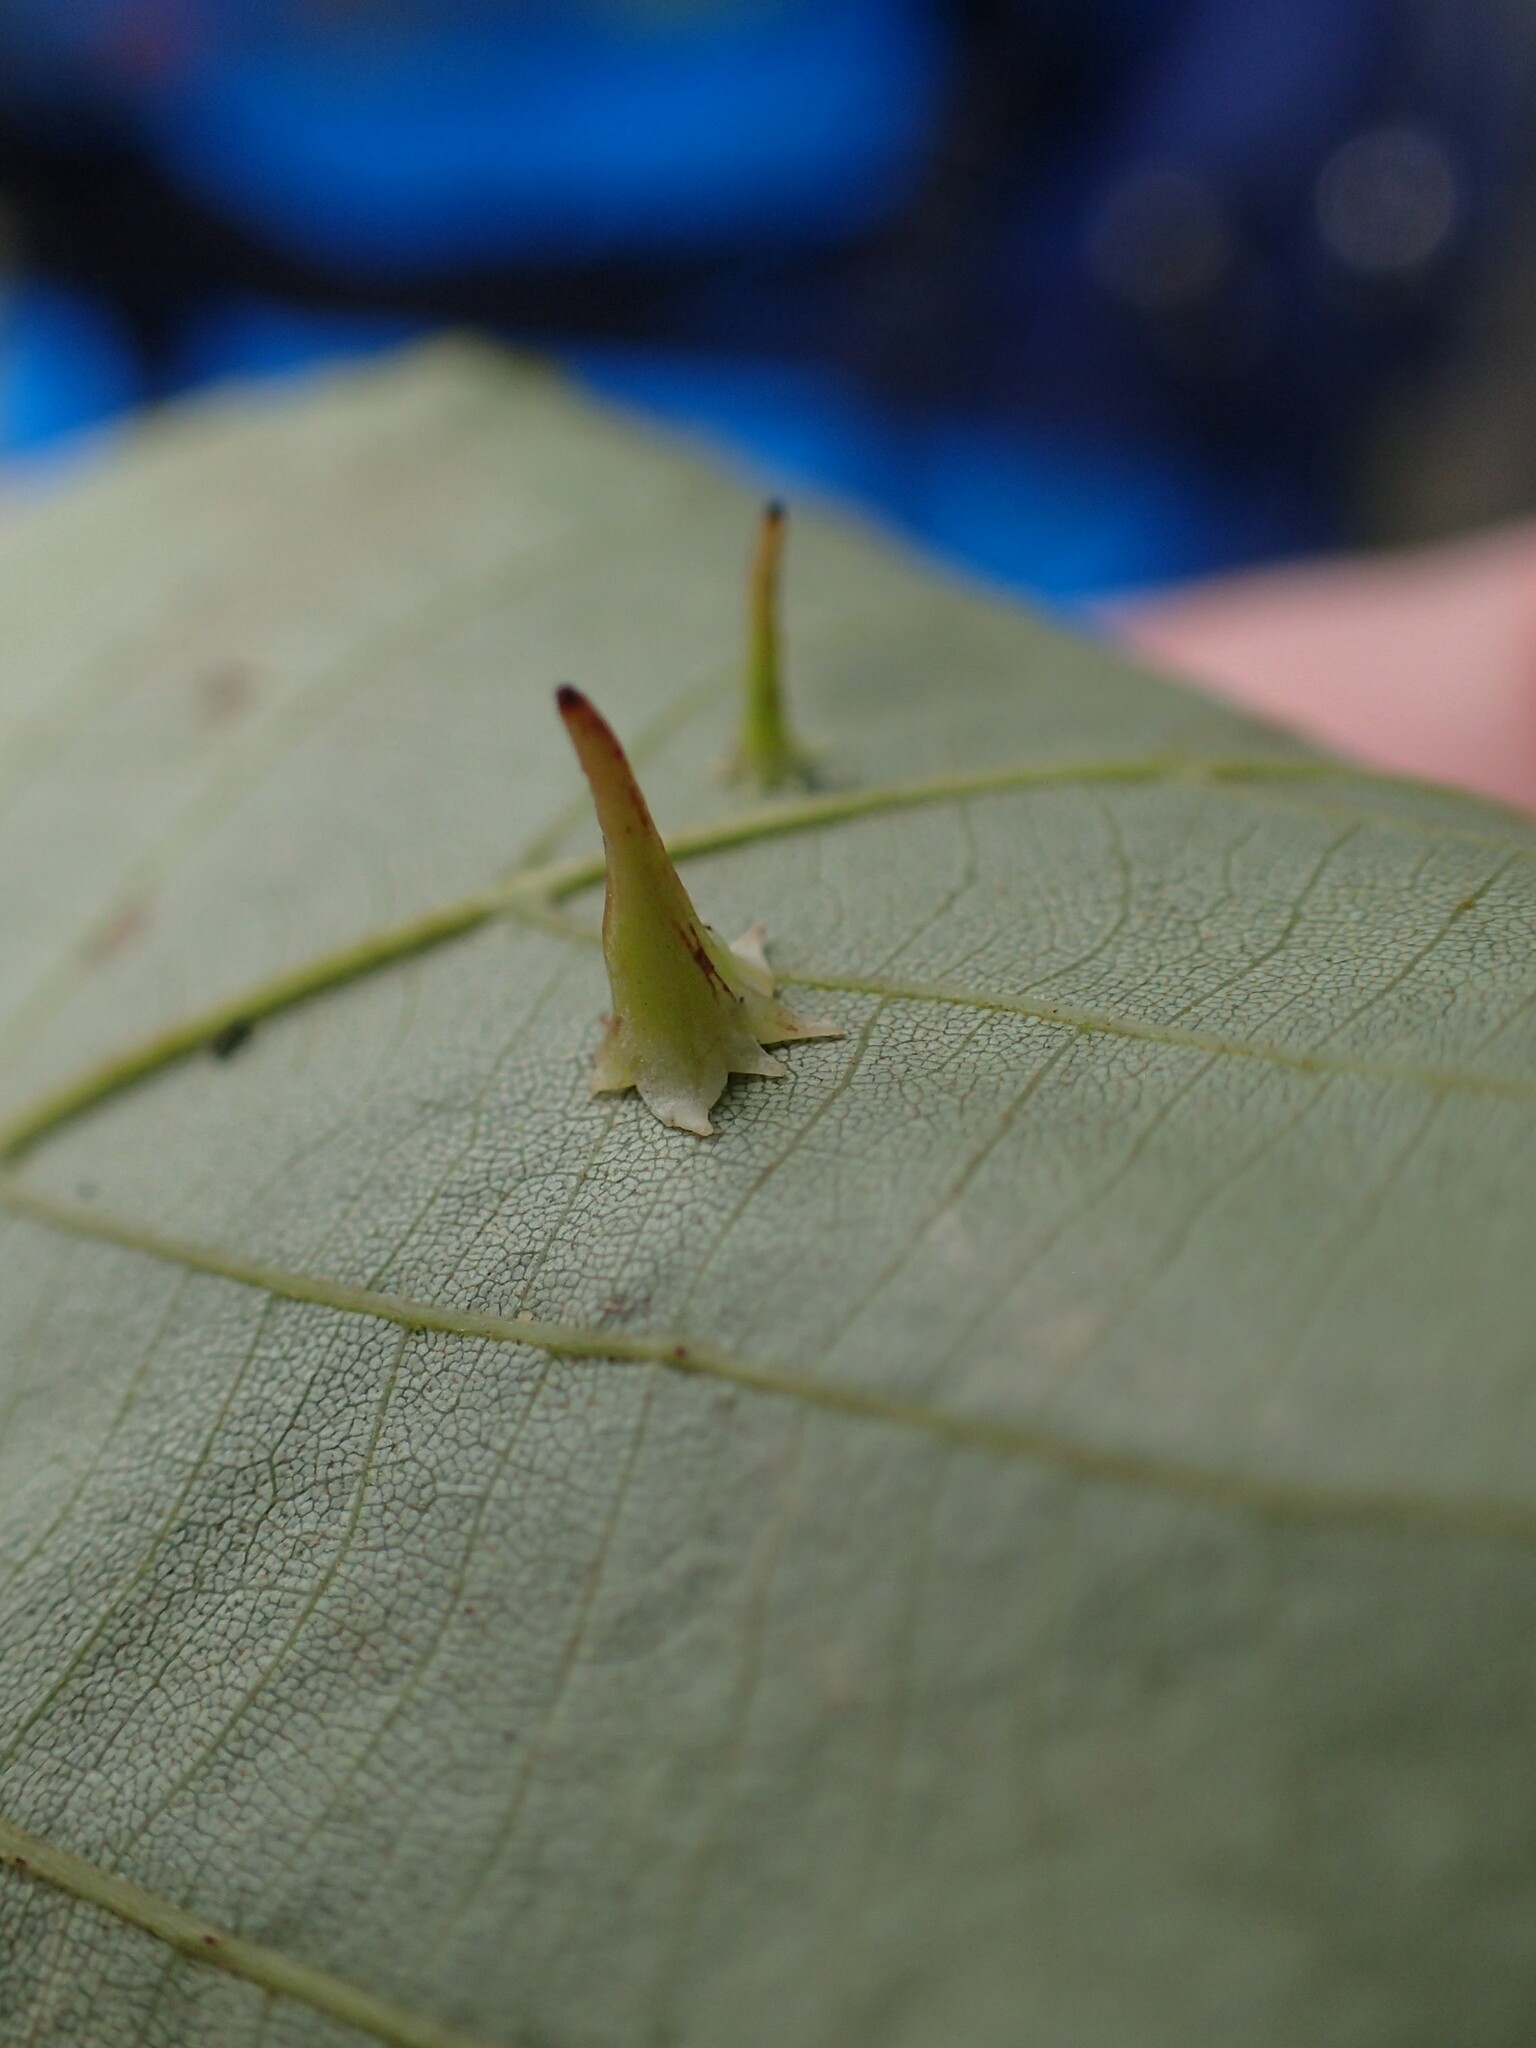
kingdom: Animalia
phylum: Arthropoda
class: Insecta
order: Diptera
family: Cecidomyiidae
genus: Caryomyia
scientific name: Caryomyia stellata
